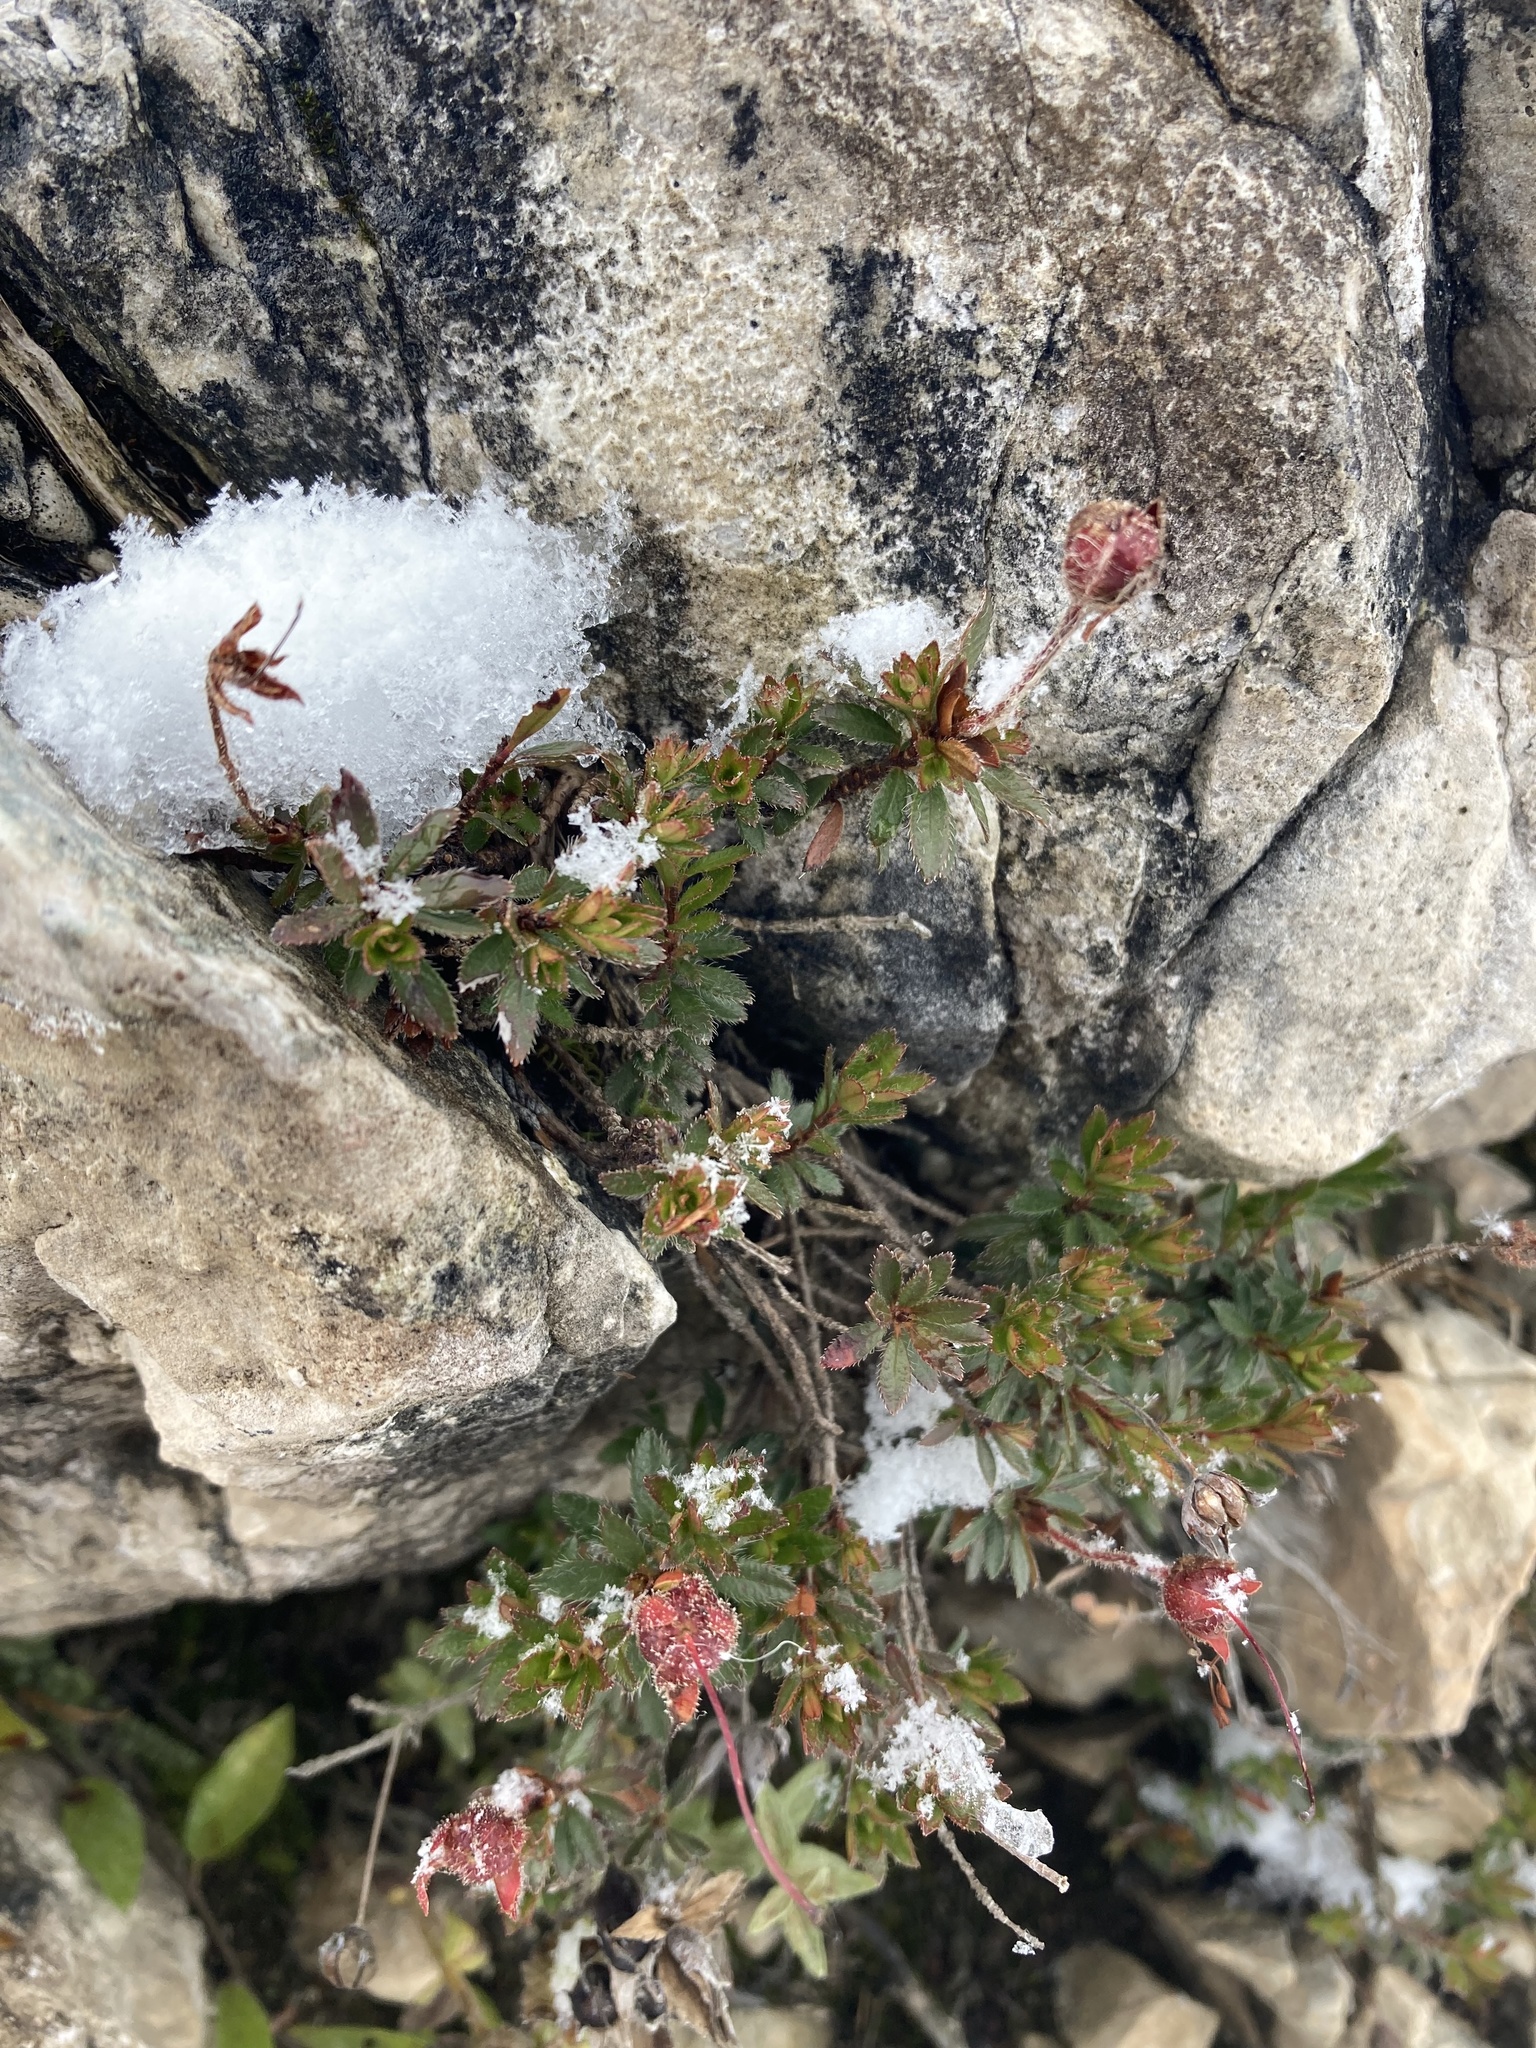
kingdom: Plantae
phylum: Tracheophyta
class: Magnoliopsida
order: Ericales
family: Ericaceae
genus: Rhodothamnus
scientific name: Rhodothamnus chamaecistus
